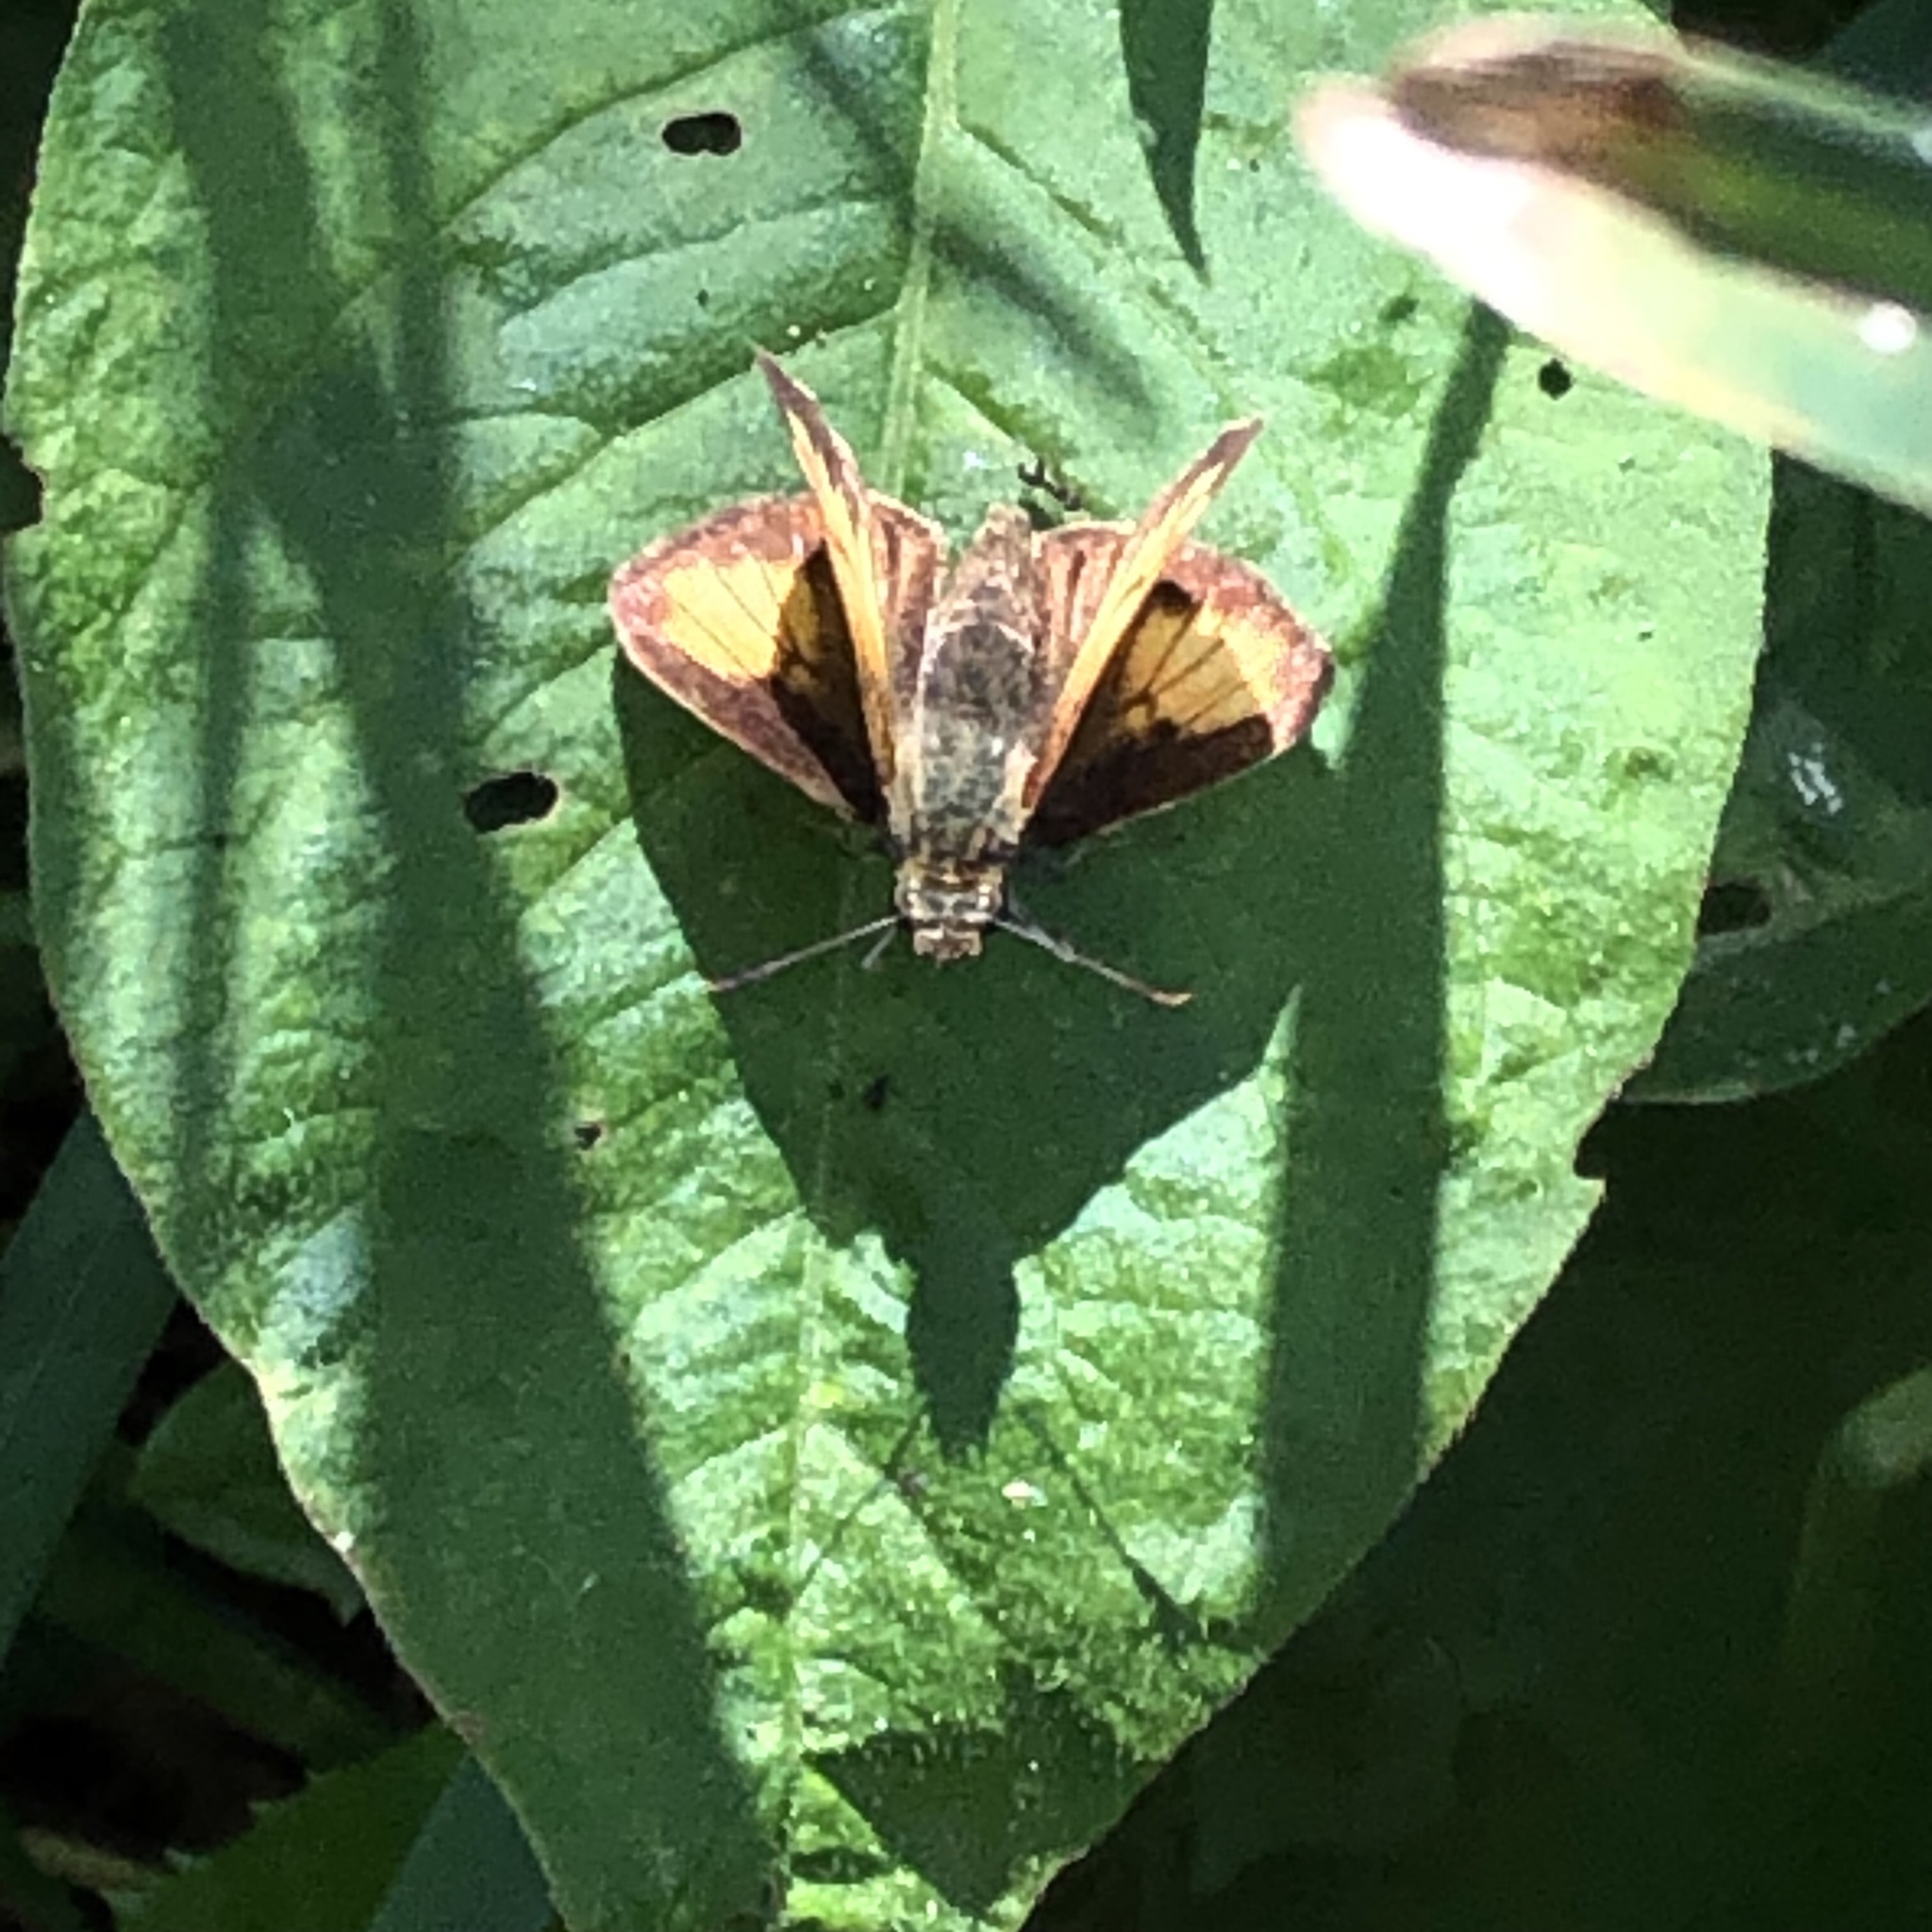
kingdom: Animalia
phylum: Arthropoda
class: Insecta
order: Lepidoptera
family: Hesperiidae
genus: Lon
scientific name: Lon hobomok
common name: Hobomok skipper
